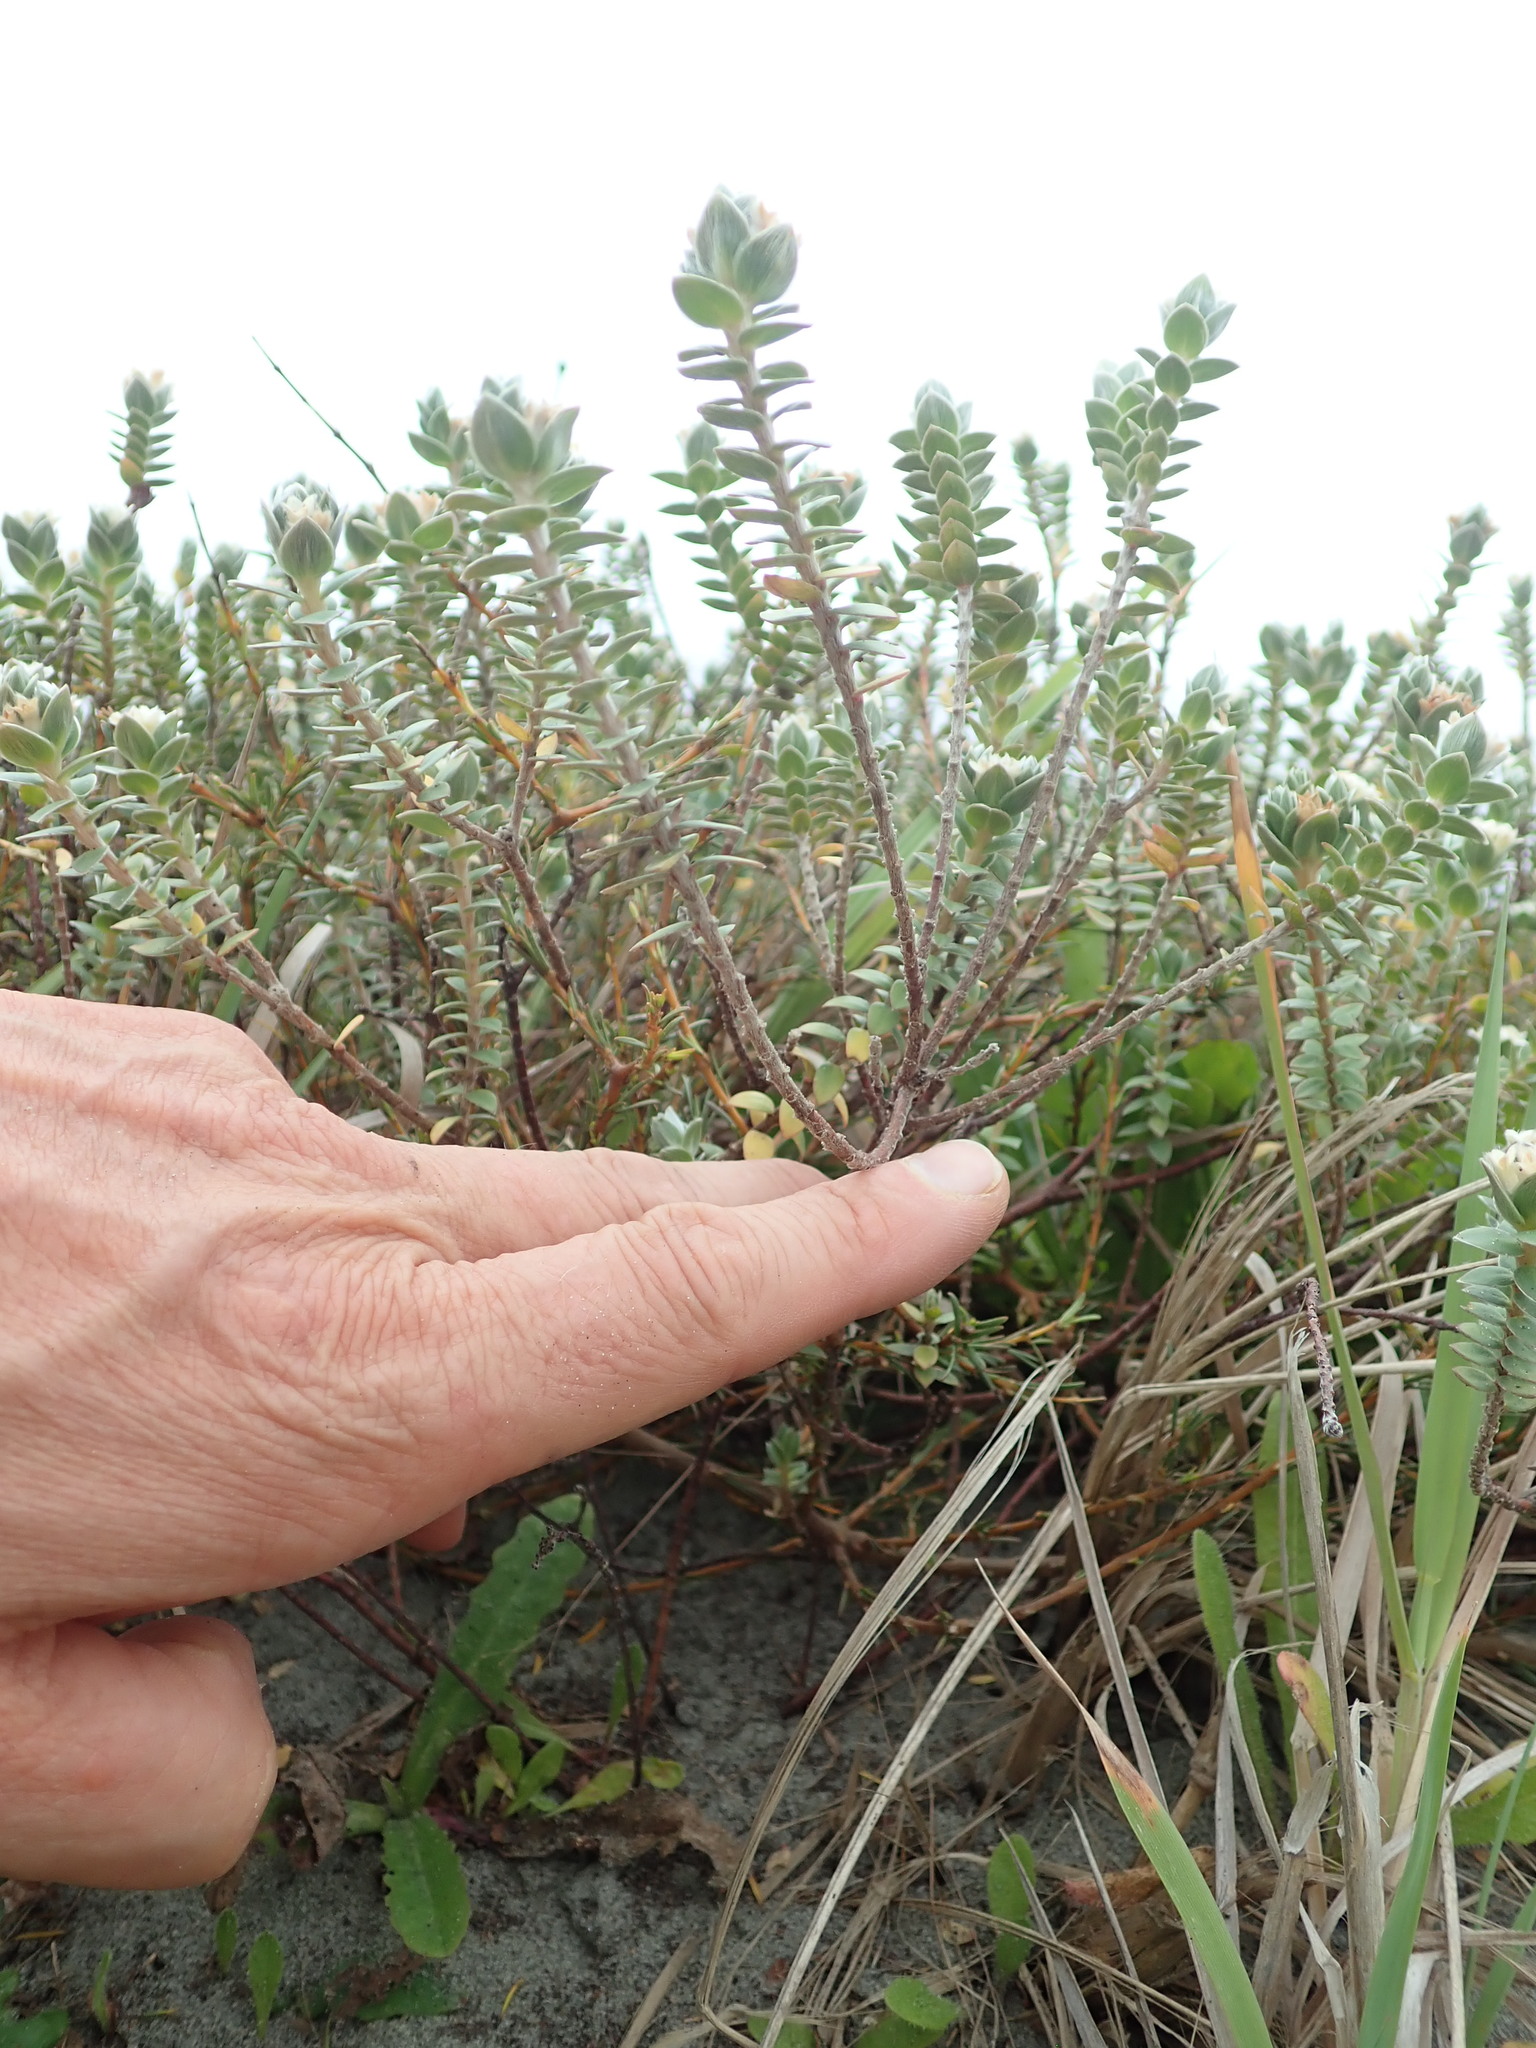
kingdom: Plantae
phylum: Tracheophyta
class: Magnoliopsida
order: Malvales
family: Thymelaeaceae
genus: Pimelea
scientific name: Pimelea villosa
